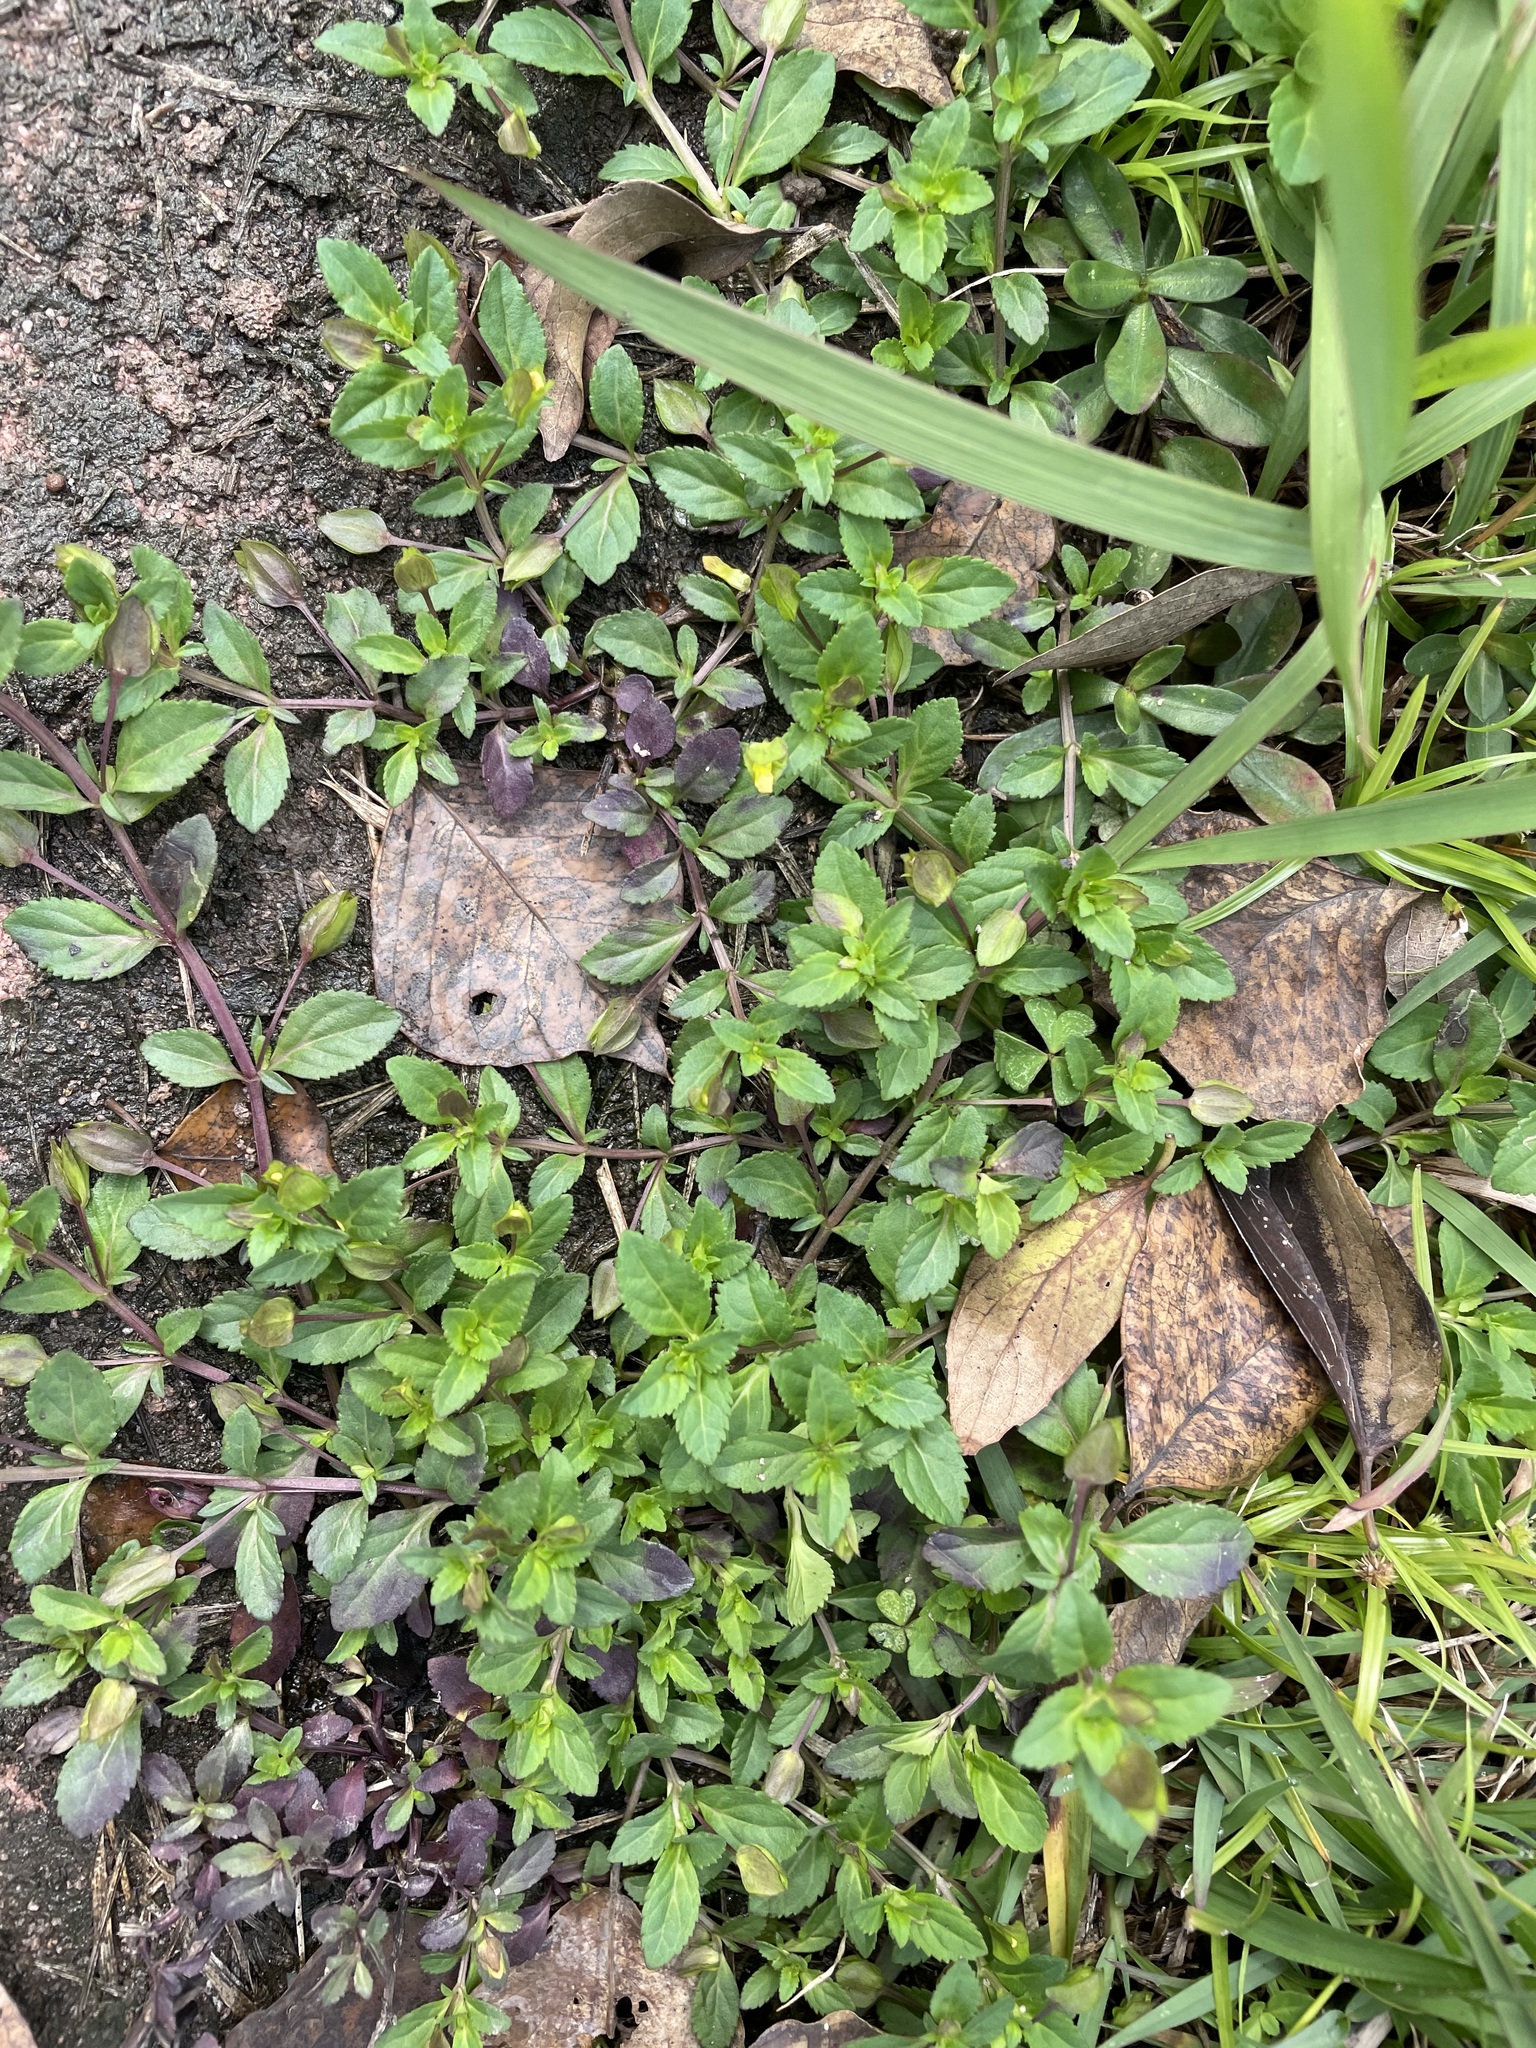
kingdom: Plantae
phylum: Tracheophyta
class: Magnoliopsida
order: Lamiales
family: Plantaginaceae
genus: Mecardonia
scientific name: Mecardonia procumbens
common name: Baby jump-up
